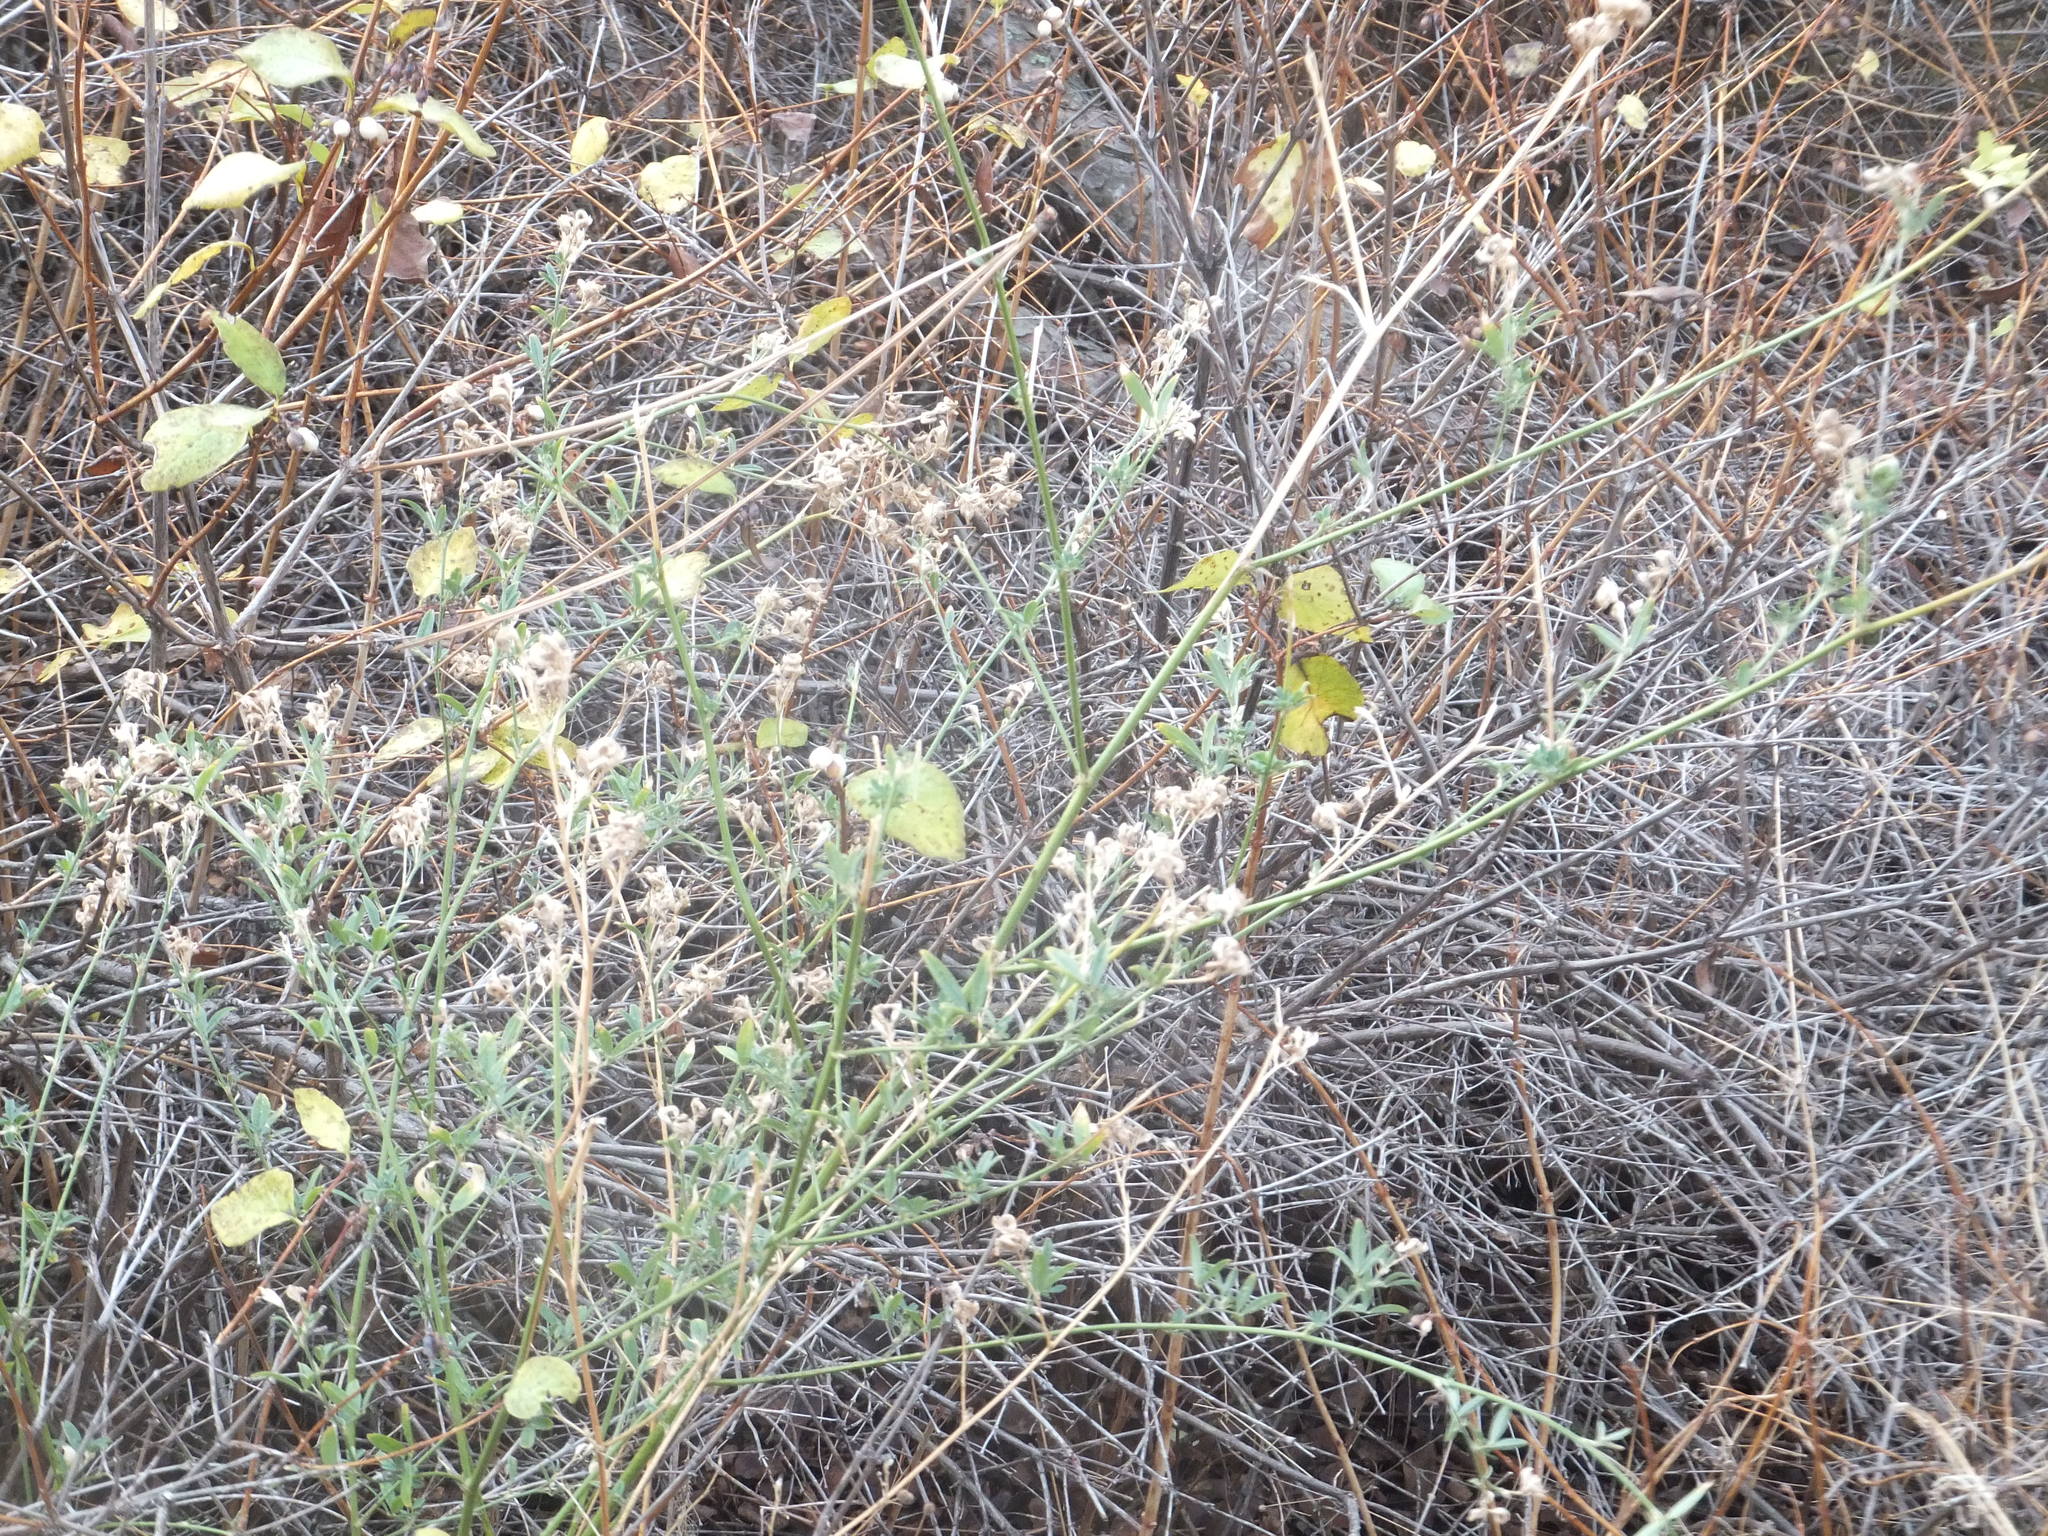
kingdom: Plantae
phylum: Tracheophyta
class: Magnoliopsida
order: Fabales
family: Fabaceae
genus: Medicago
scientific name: Medicago sativa
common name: Alfalfa
